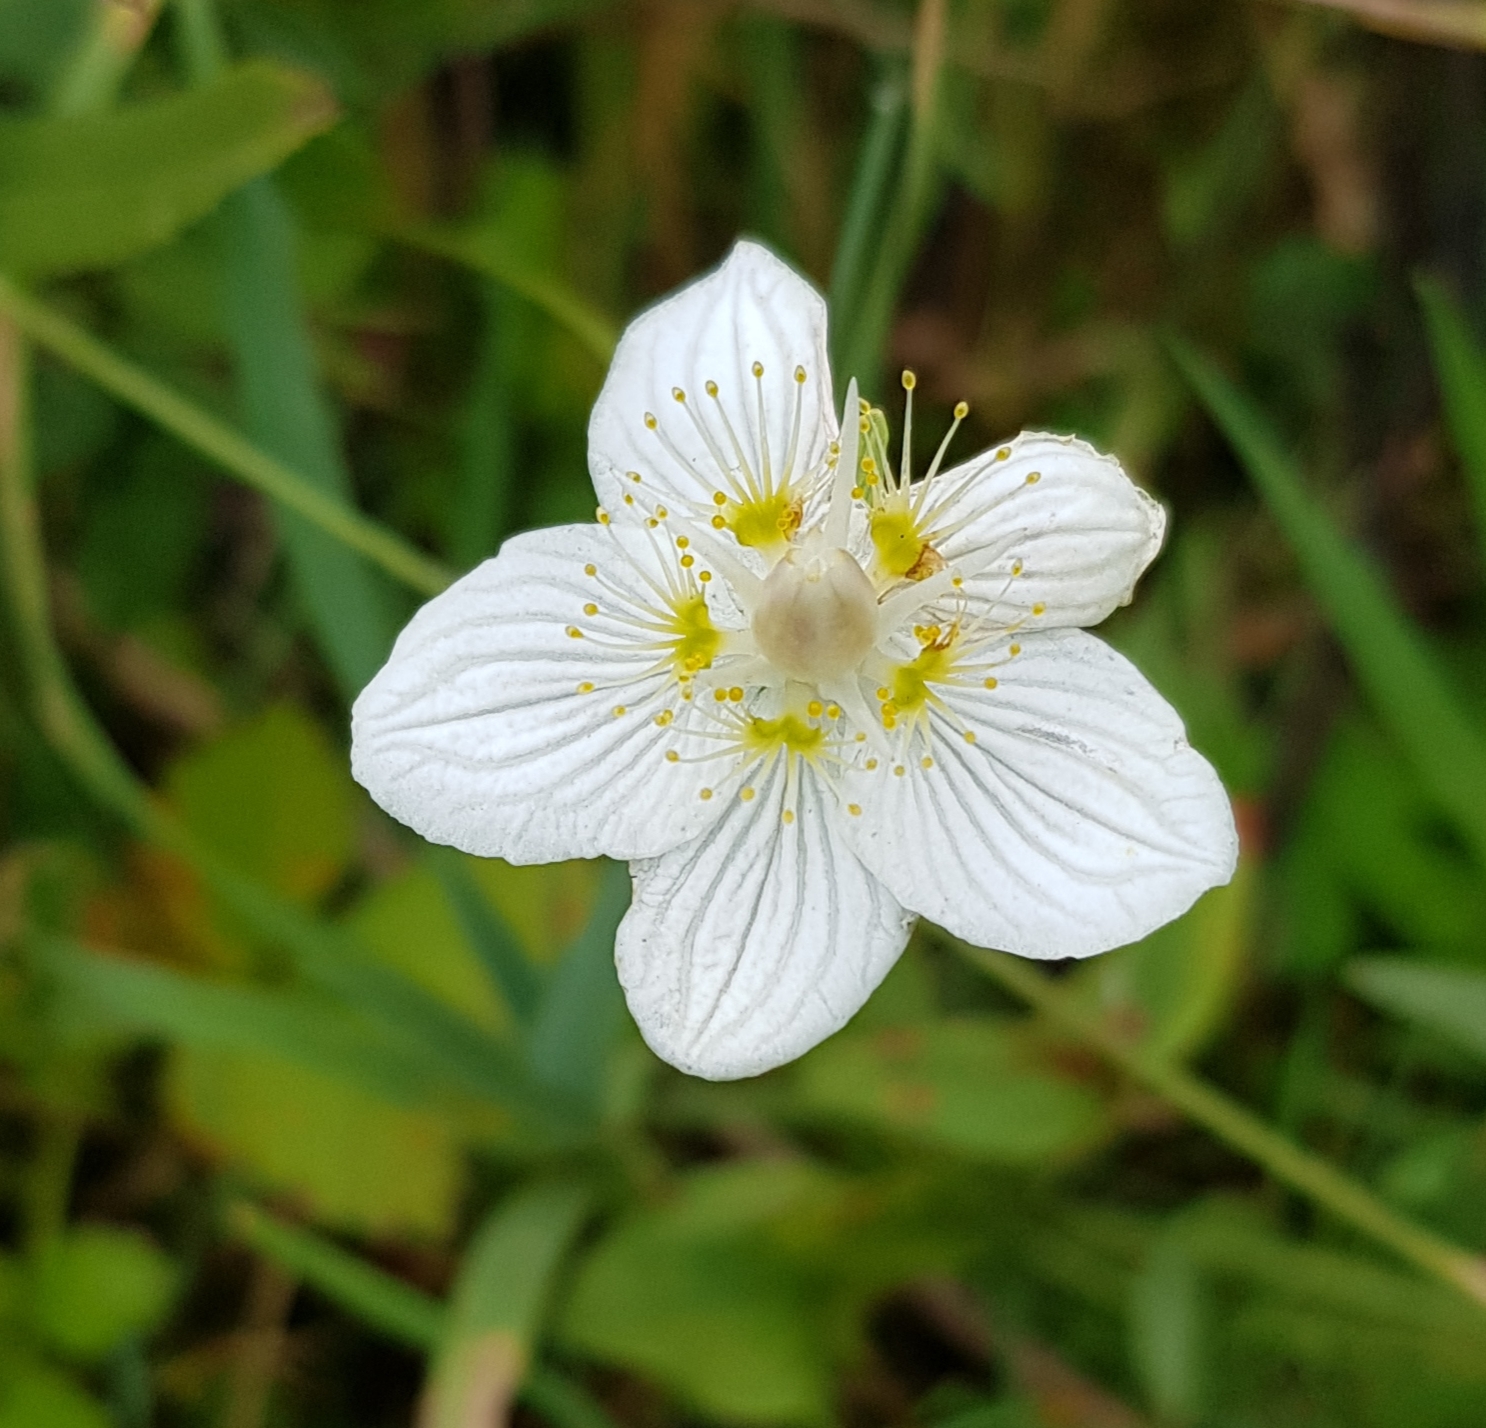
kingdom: Plantae
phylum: Tracheophyta
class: Magnoliopsida
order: Celastrales
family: Parnassiaceae
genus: Parnassia
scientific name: Parnassia palustris
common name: Grass-of-parnassus
